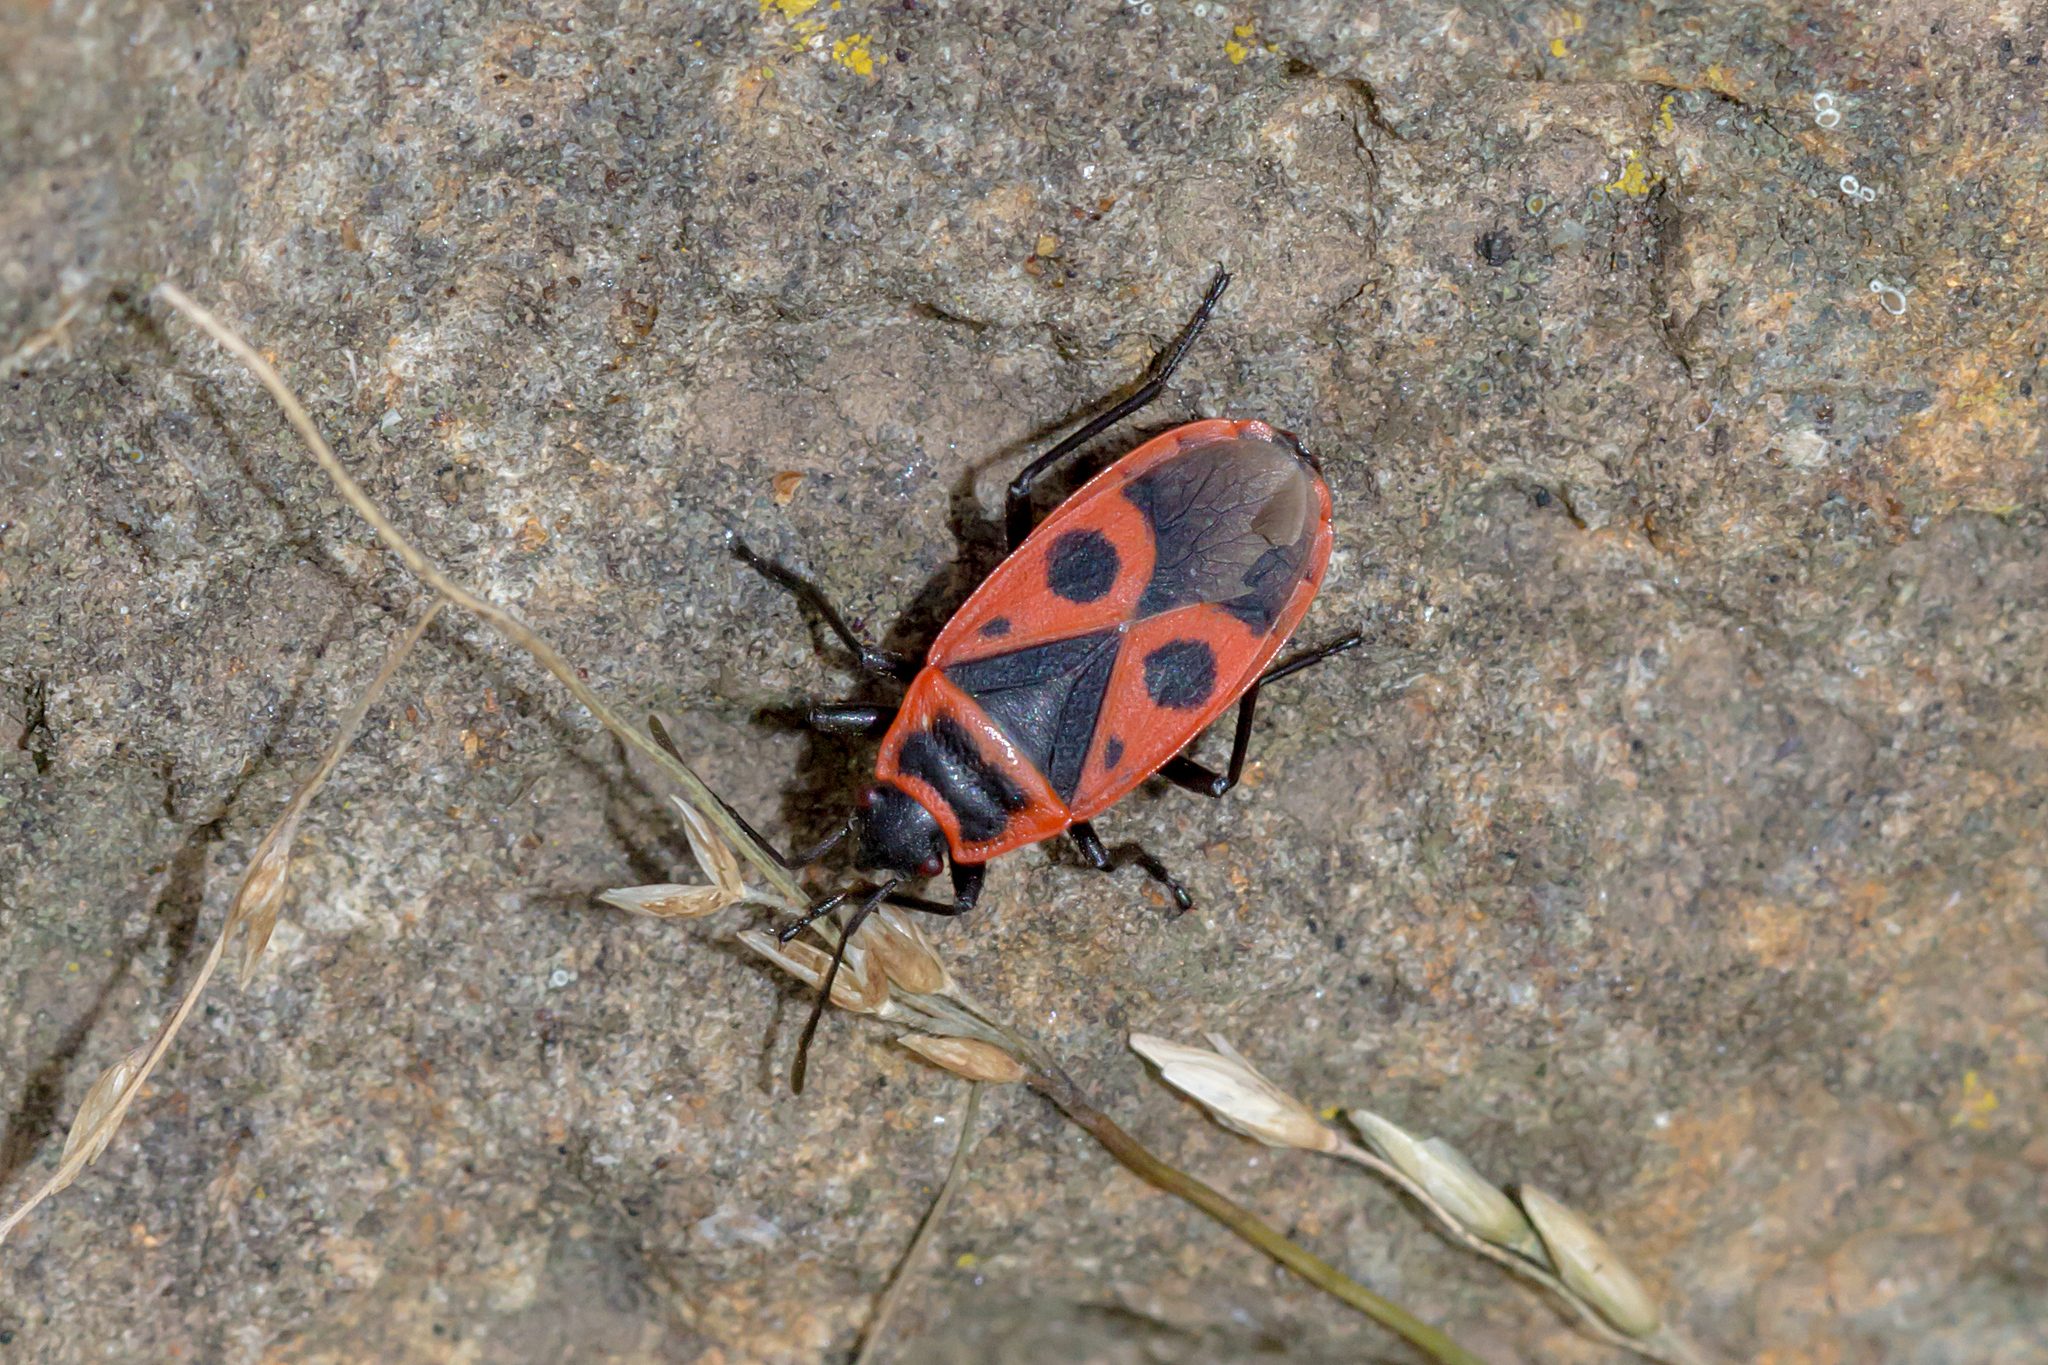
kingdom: Animalia
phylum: Arthropoda
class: Insecta
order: Hemiptera
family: Pyrrhocoridae
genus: Pyrrhocoris
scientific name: Pyrrhocoris apterus
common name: Firebug
